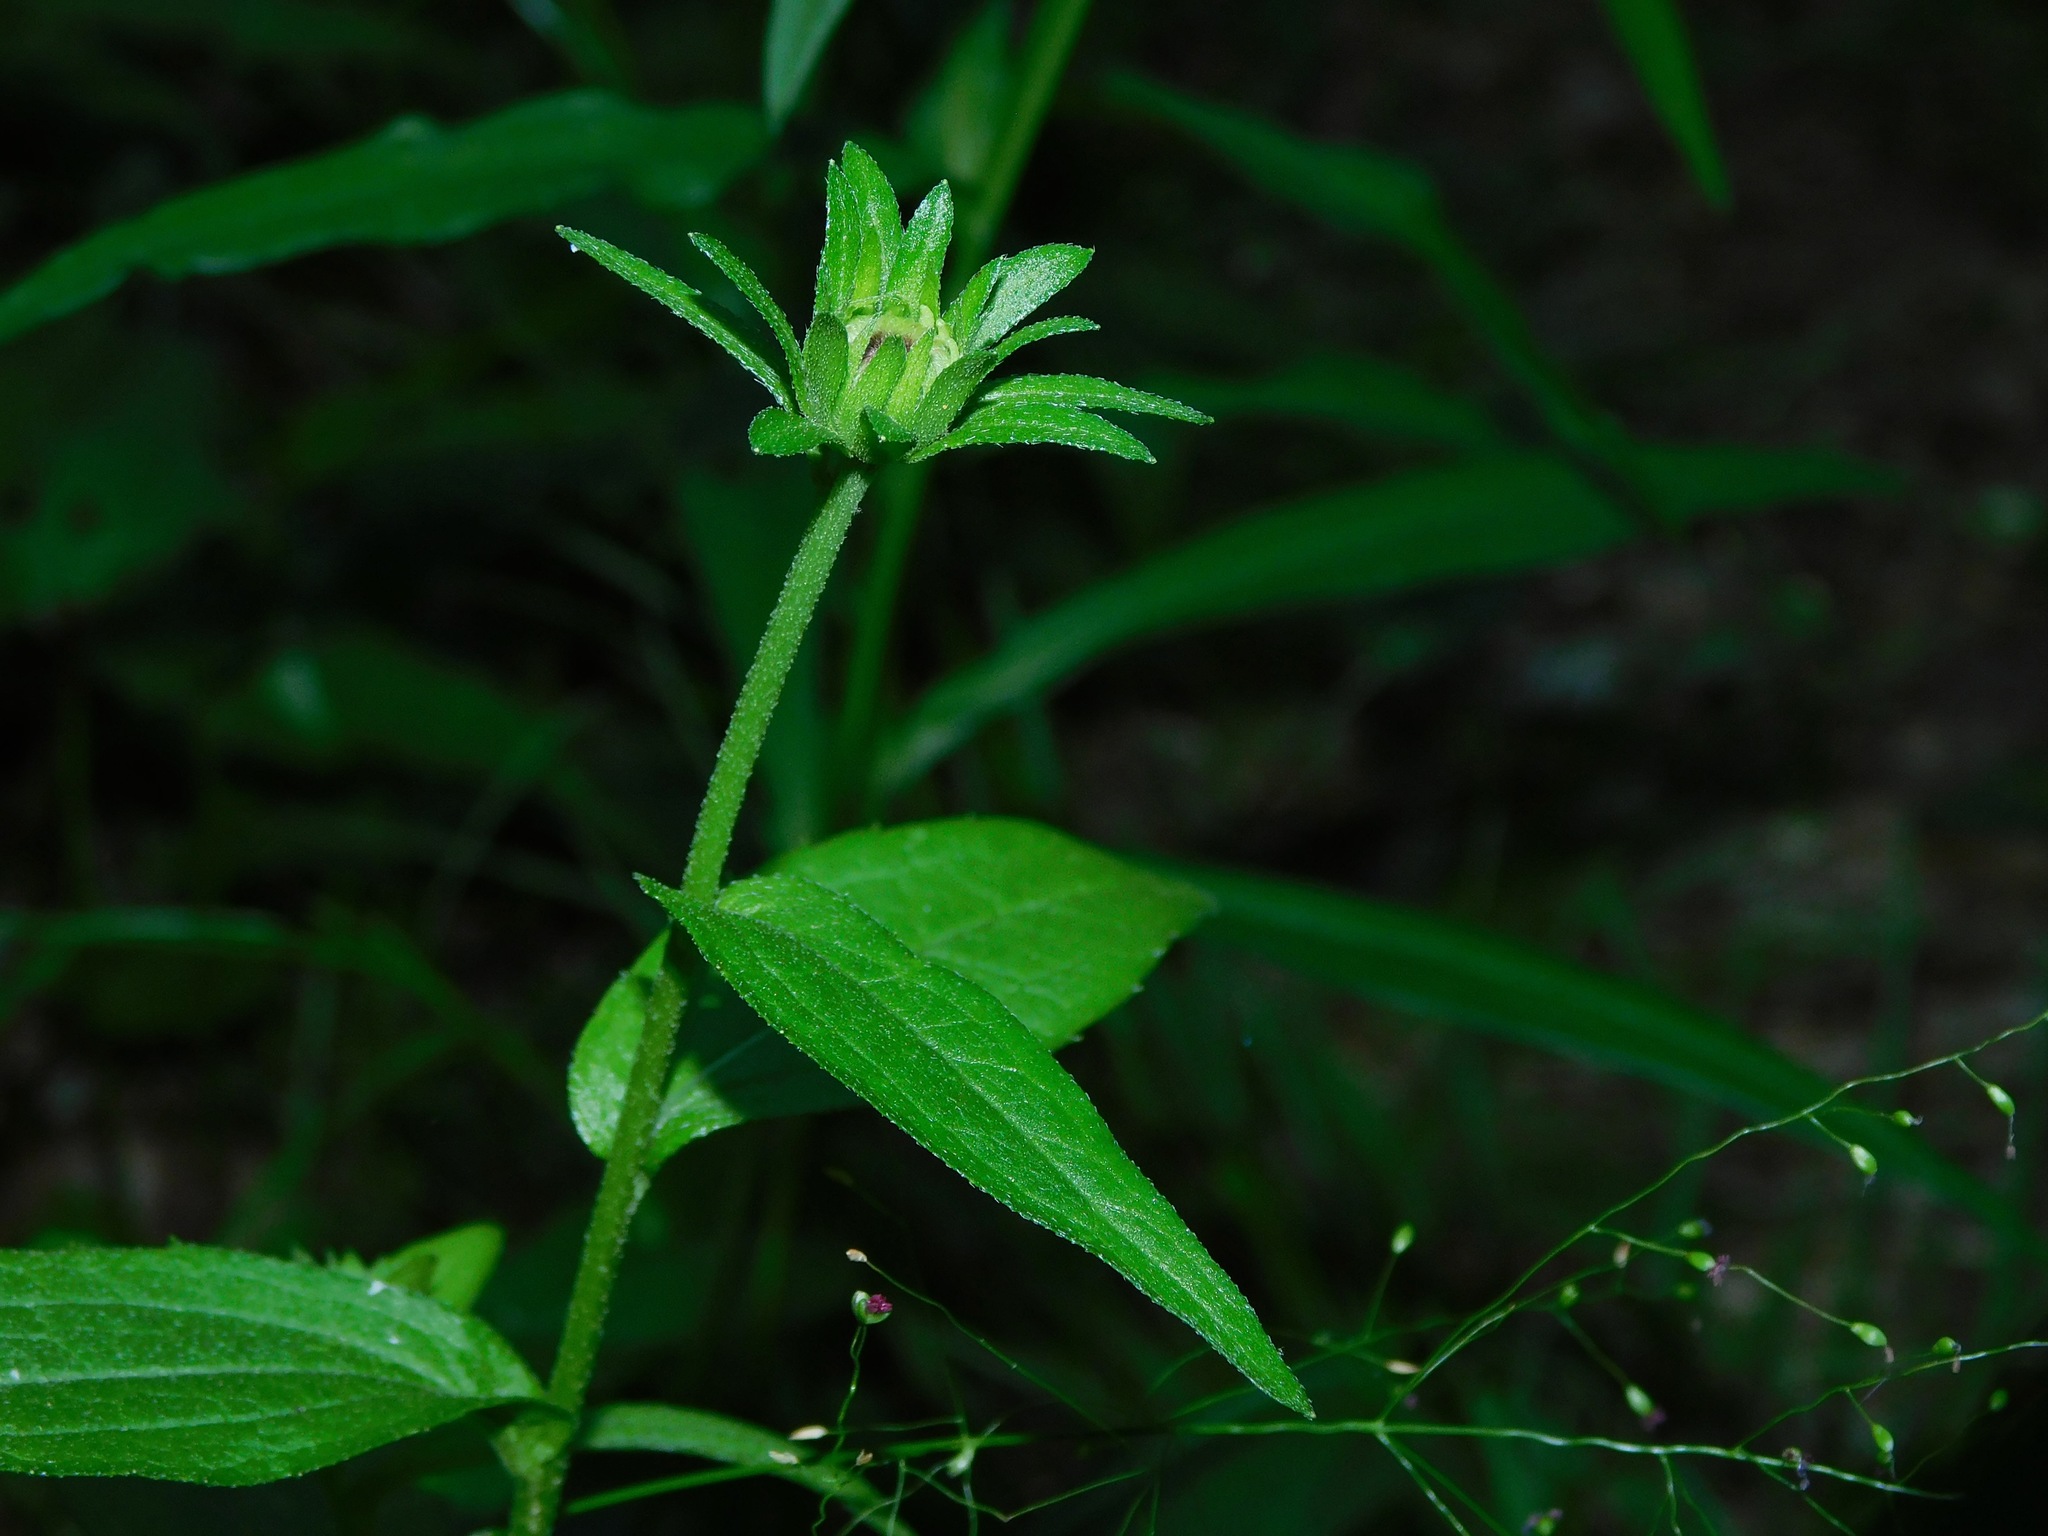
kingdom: Plantae
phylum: Tracheophyta
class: Magnoliopsida
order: Asterales
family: Asteraceae
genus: Rudbeckia
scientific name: Rudbeckia hirta
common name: Black-eyed-susan
